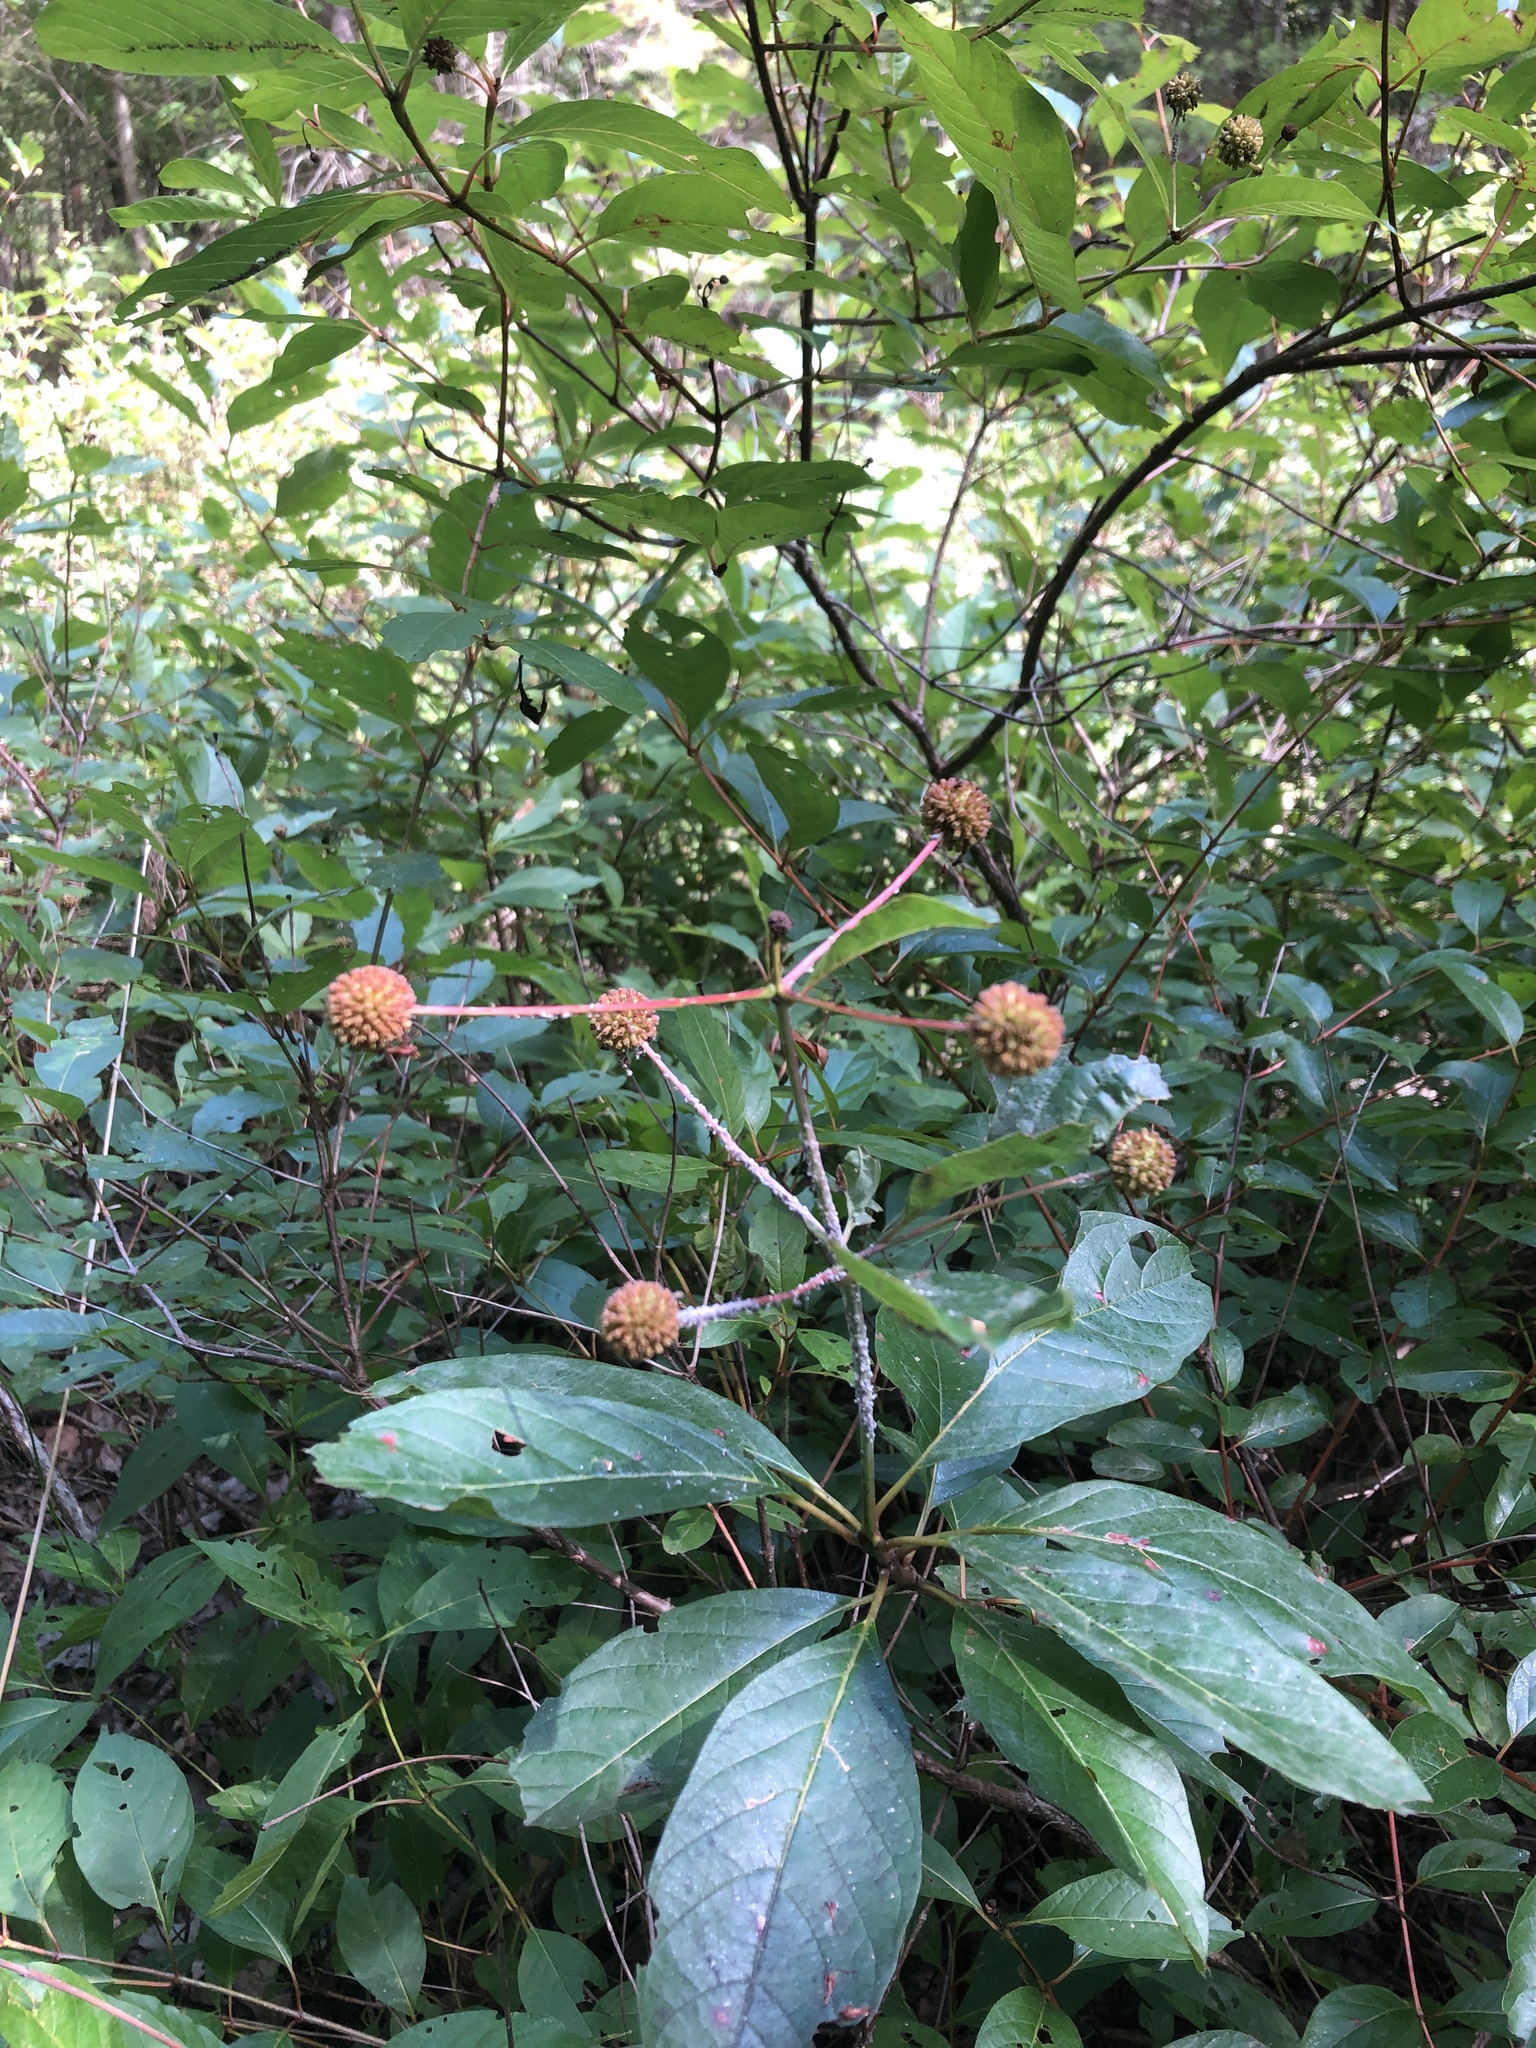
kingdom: Plantae
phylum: Tracheophyta
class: Magnoliopsida
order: Gentianales
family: Rubiaceae
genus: Cephalanthus
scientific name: Cephalanthus occidentalis
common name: Button-willow
